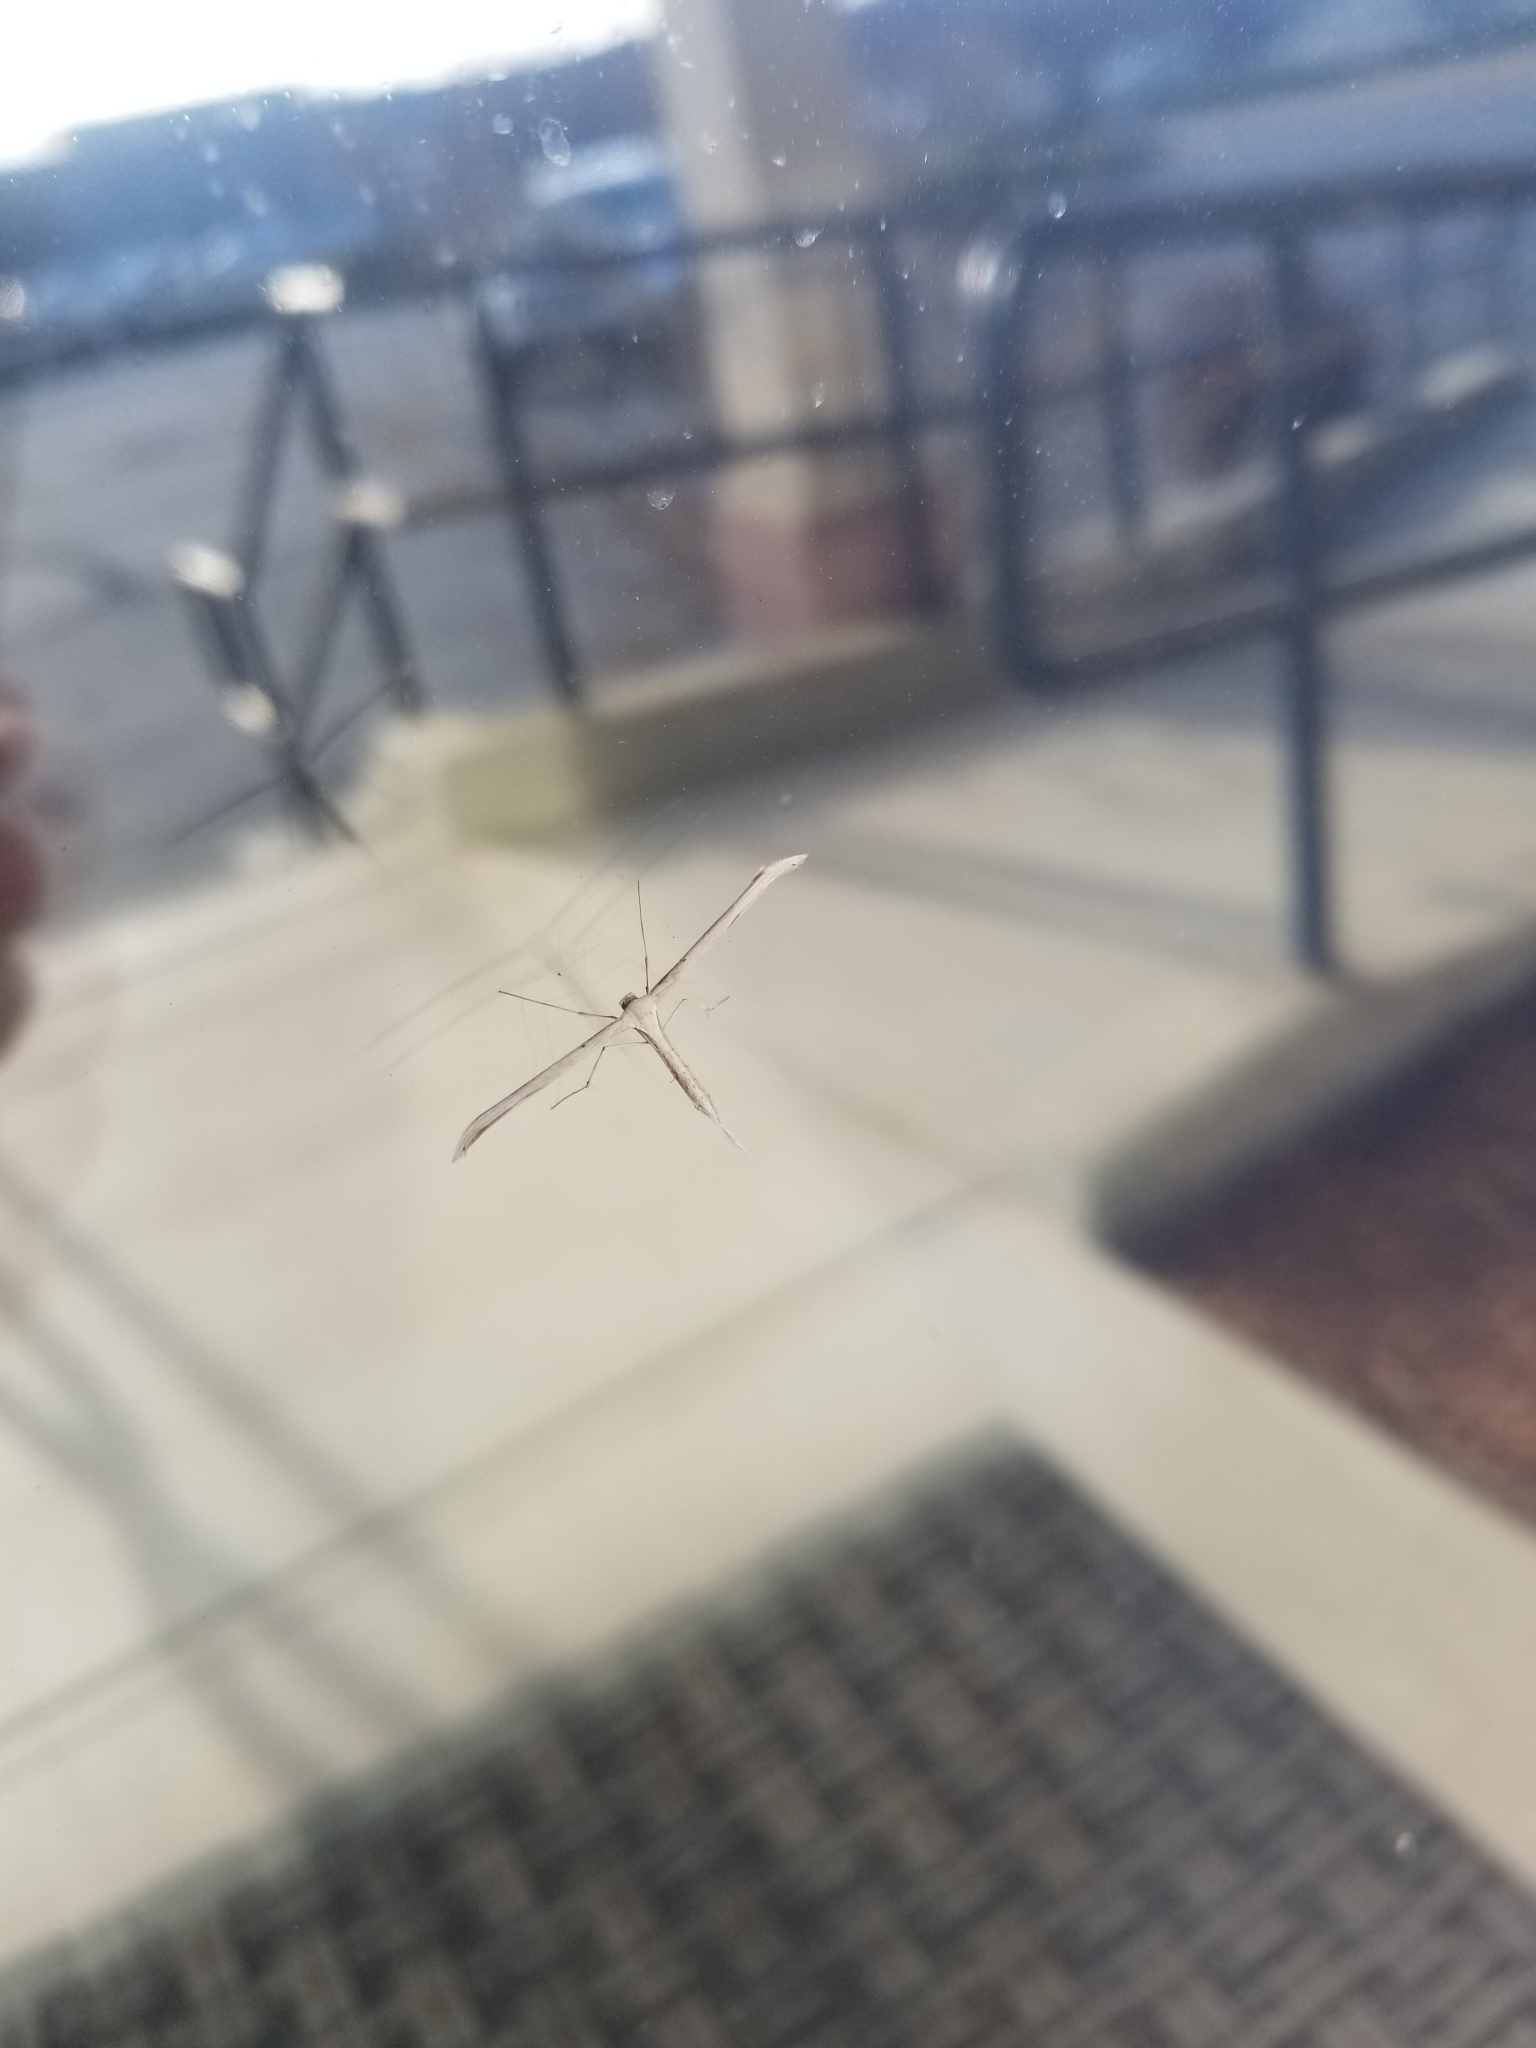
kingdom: Animalia
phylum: Arthropoda
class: Insecta
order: Lepidoptera
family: Pterophoridae
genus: Emmelina
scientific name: Emmelina monodactyla
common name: Common plume
